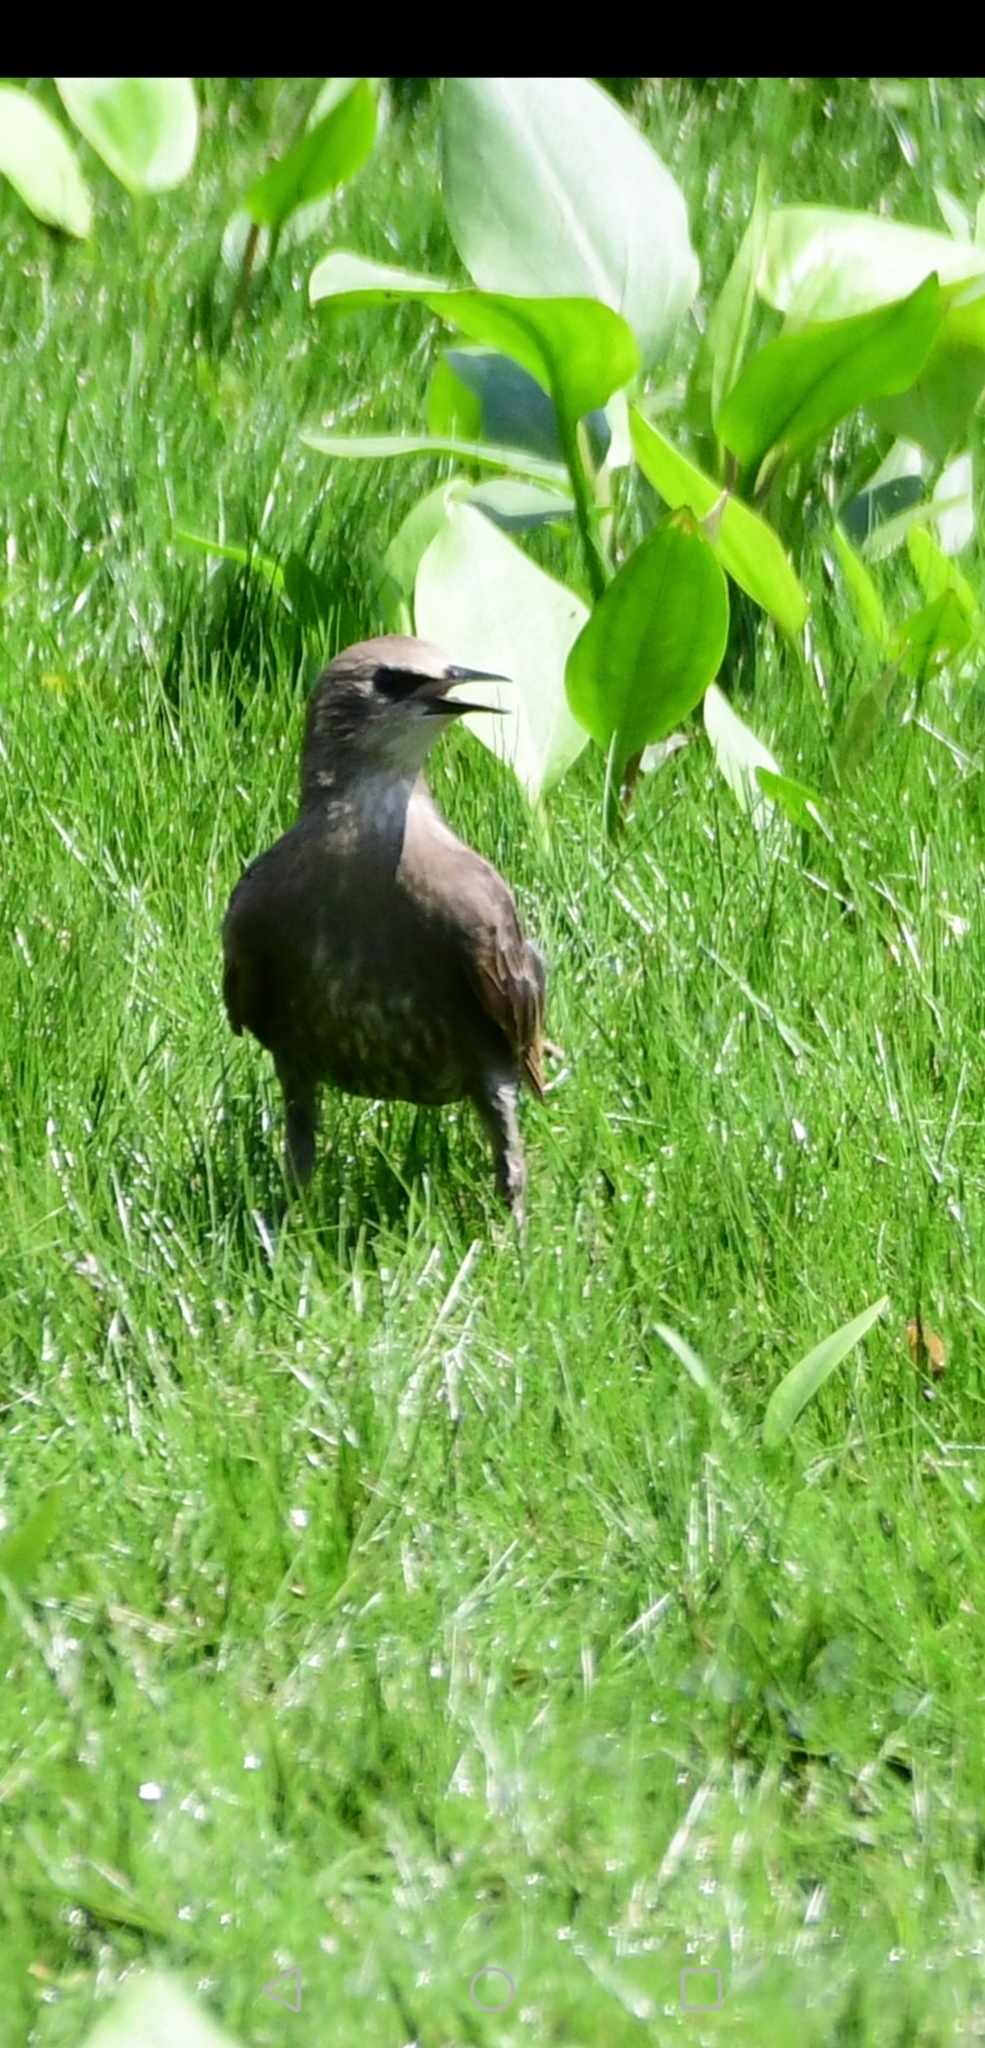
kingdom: Animalia
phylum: Chordata
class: Aves
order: Passeriformes
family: Sturnidae
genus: Sturnus
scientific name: Sturnus vulgaris
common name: Common starling
